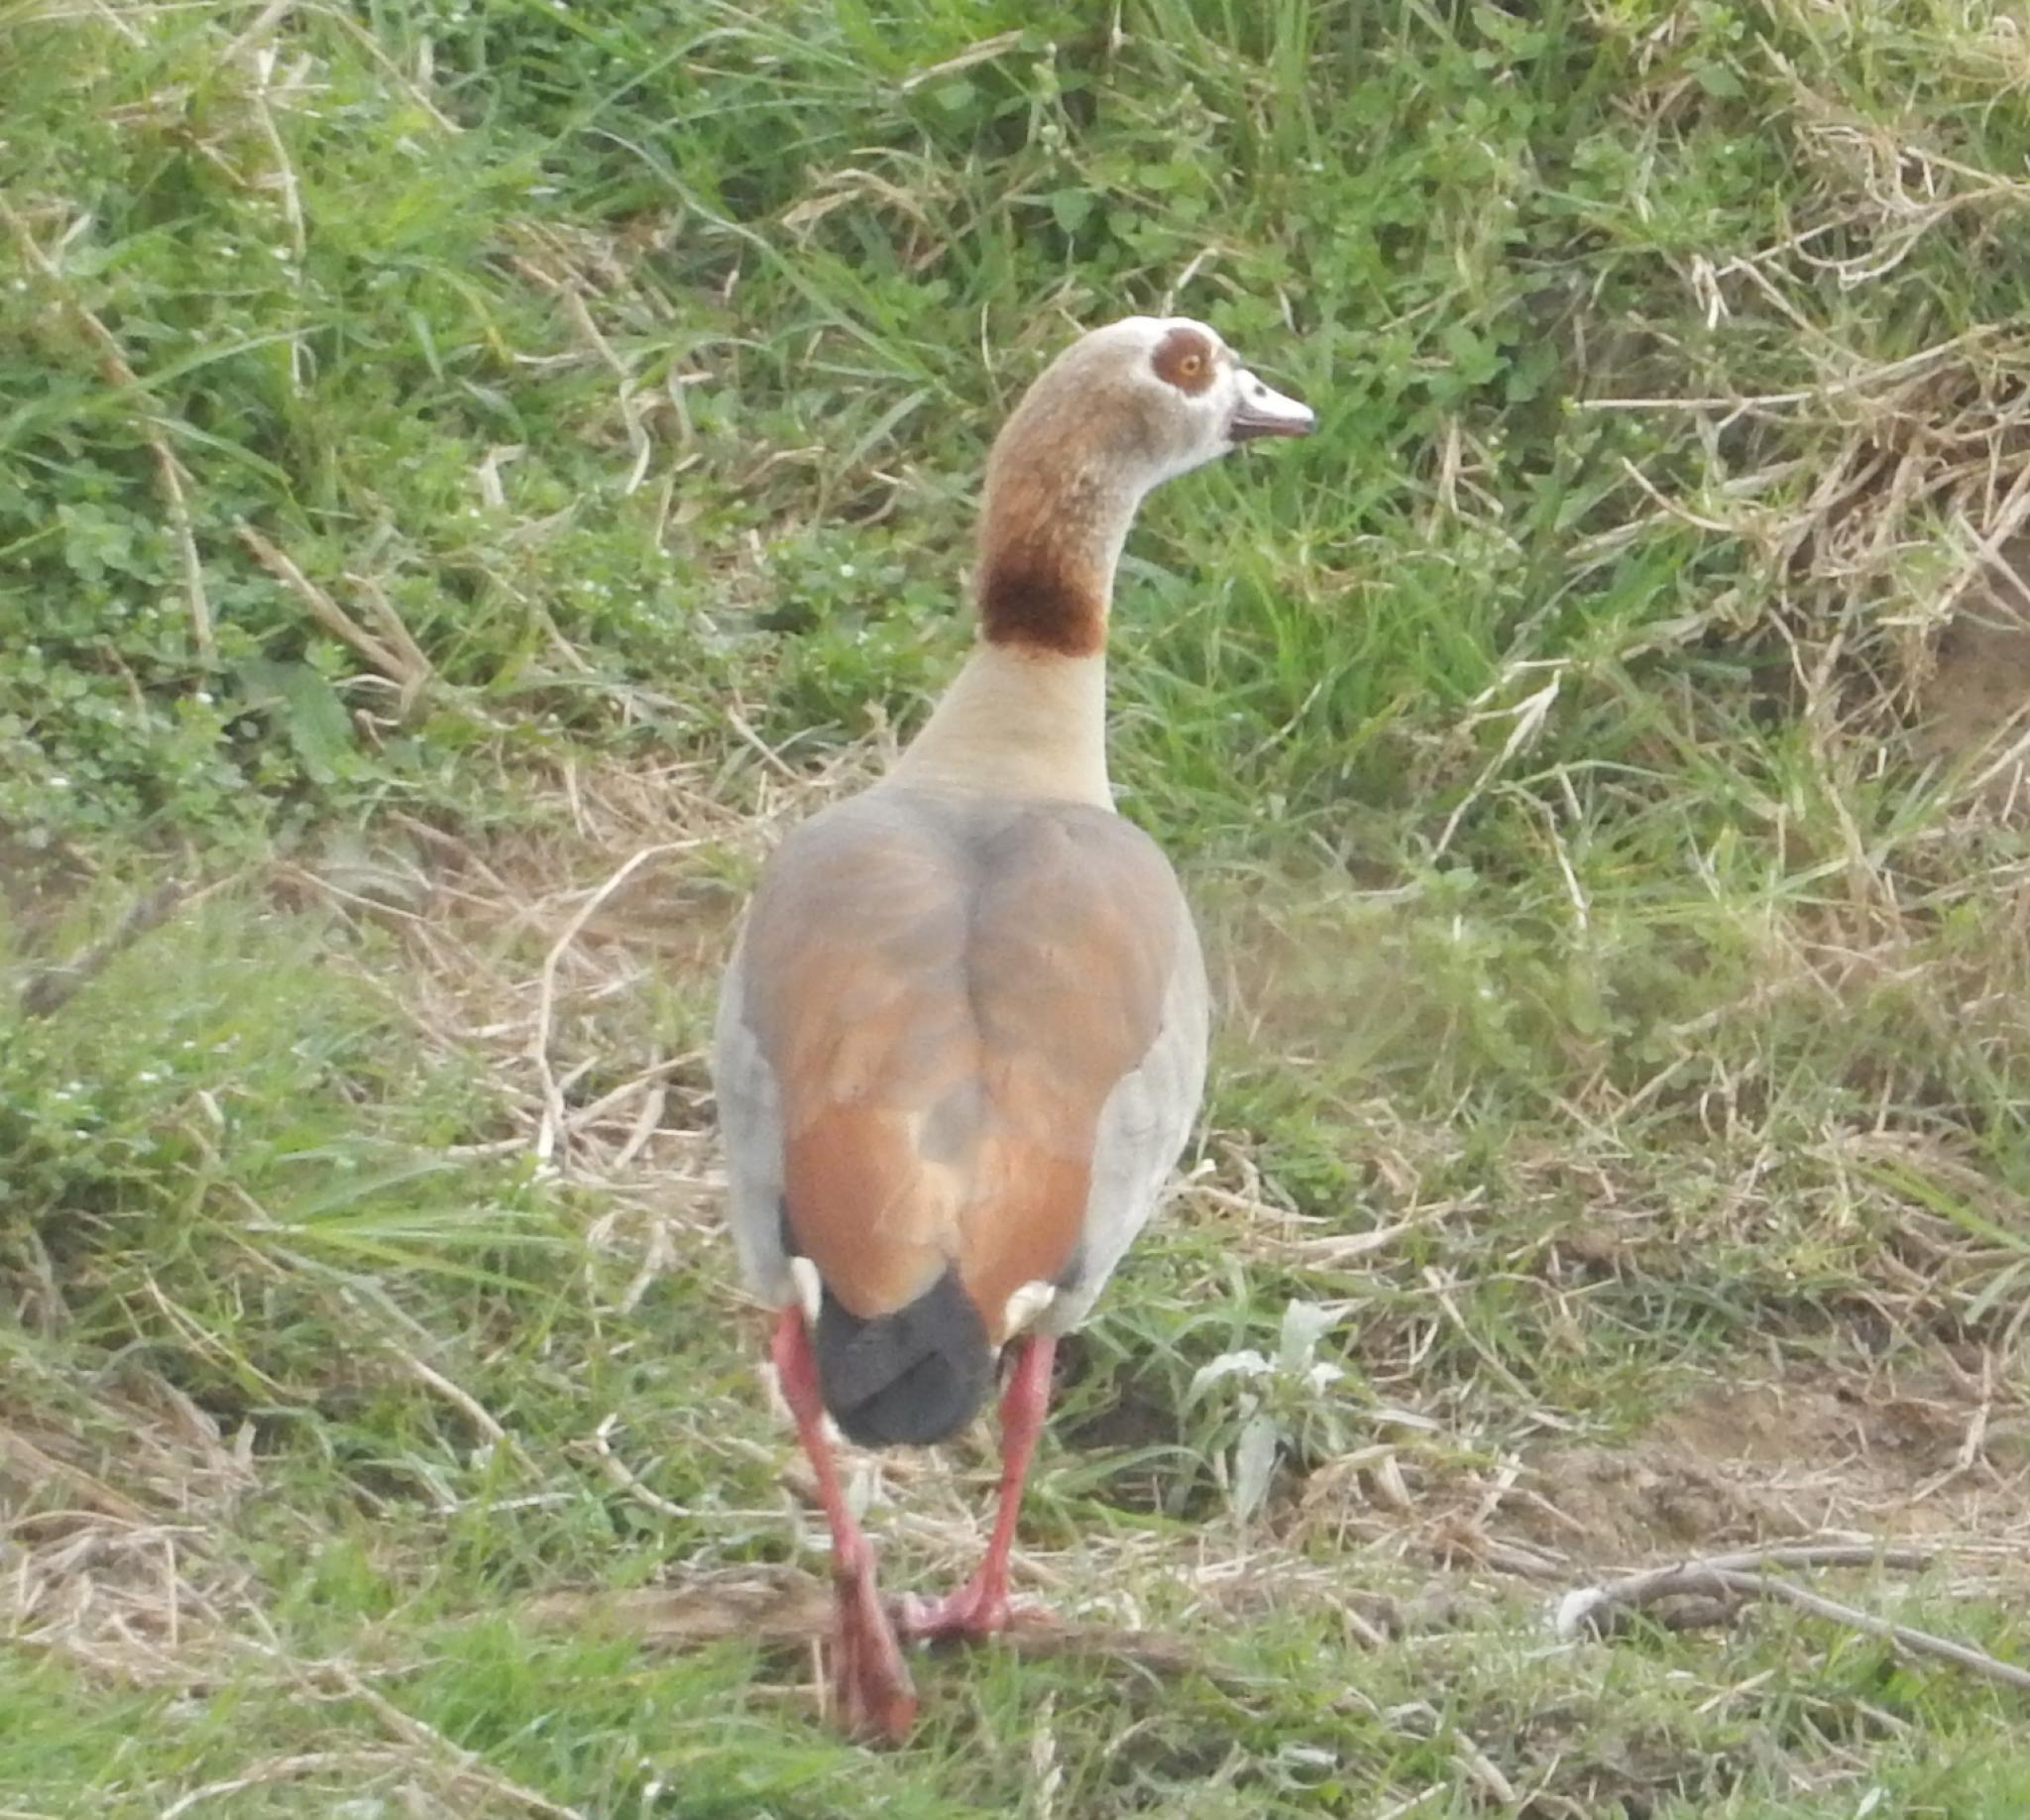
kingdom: Animalia
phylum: Chordata
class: Aves
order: Anseriformes
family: Anatidae
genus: Alopochen
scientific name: Alopochen aegyptiaca
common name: Egyptian goose
